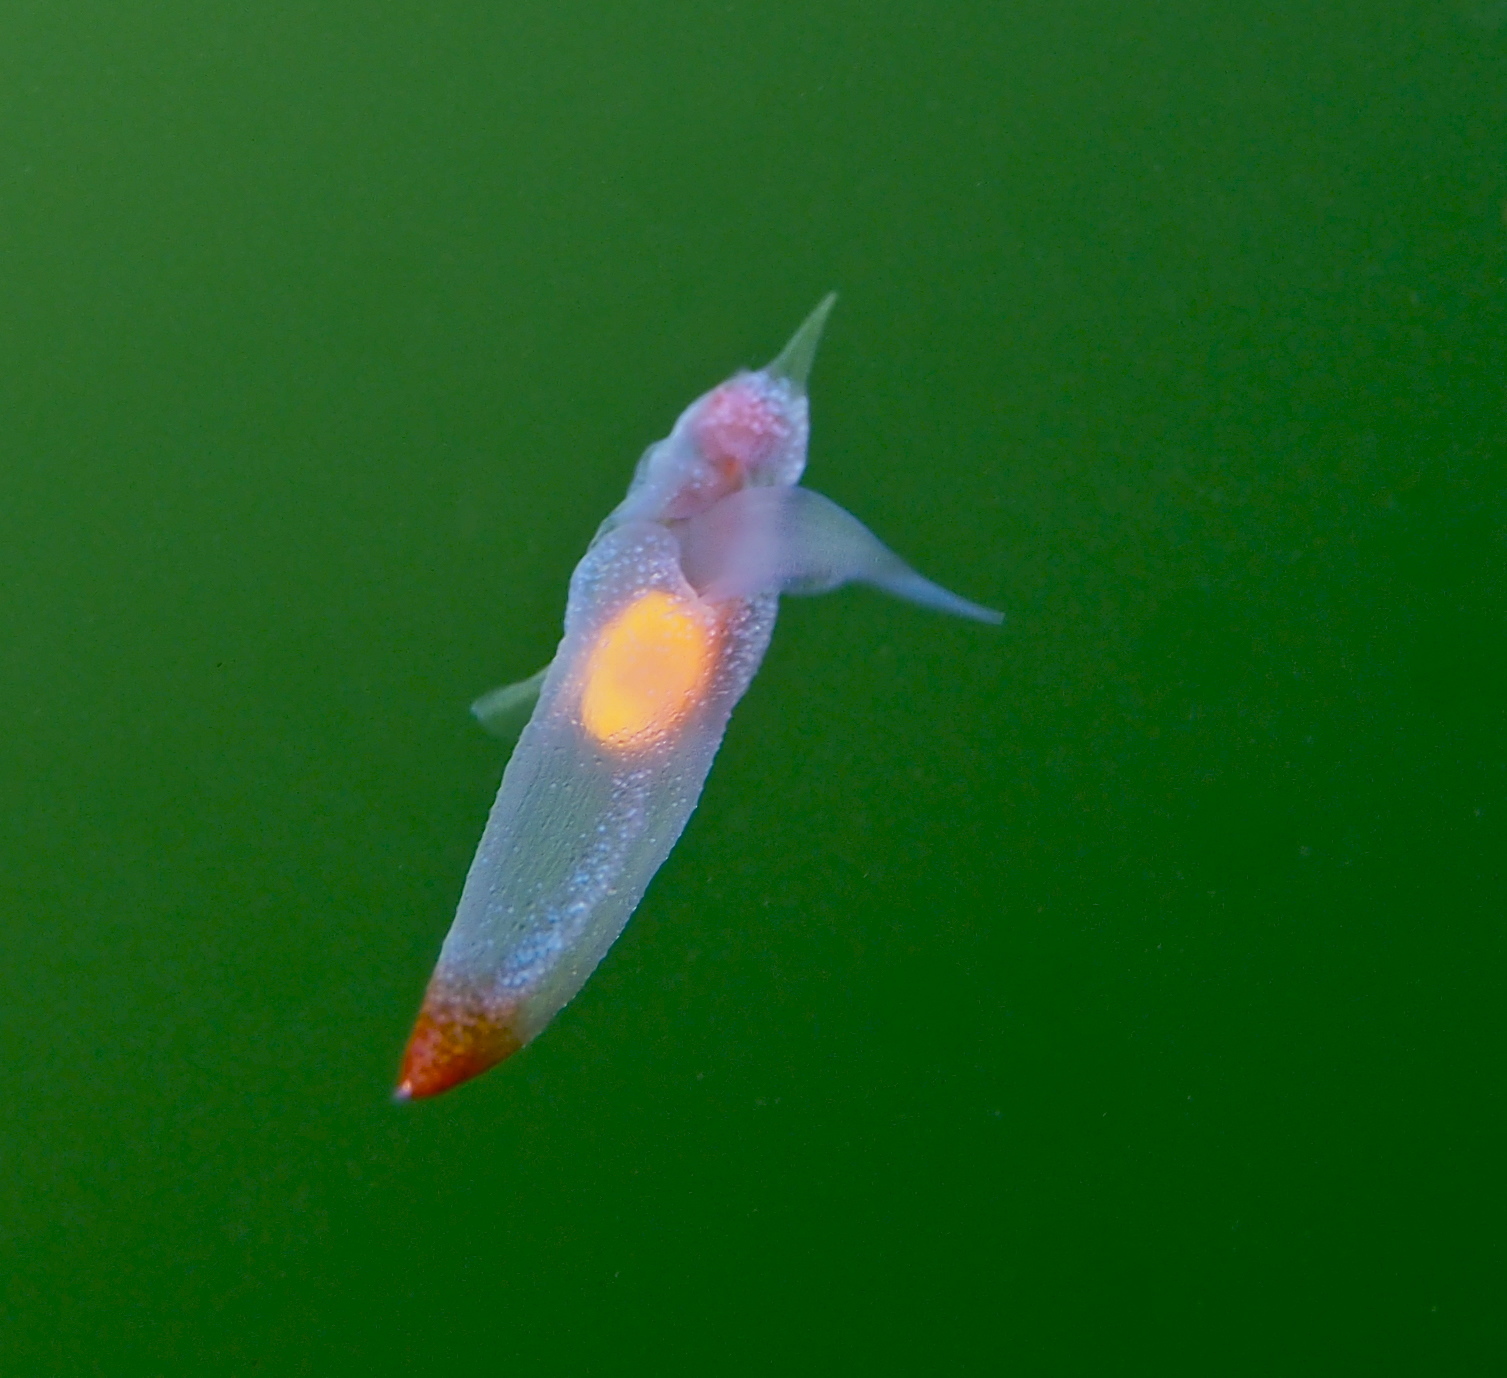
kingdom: Animalia
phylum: Mollusca
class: Gastropoda
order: Pteropoda
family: Clionidae
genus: Clione
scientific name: Clione limacina
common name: Common clione
